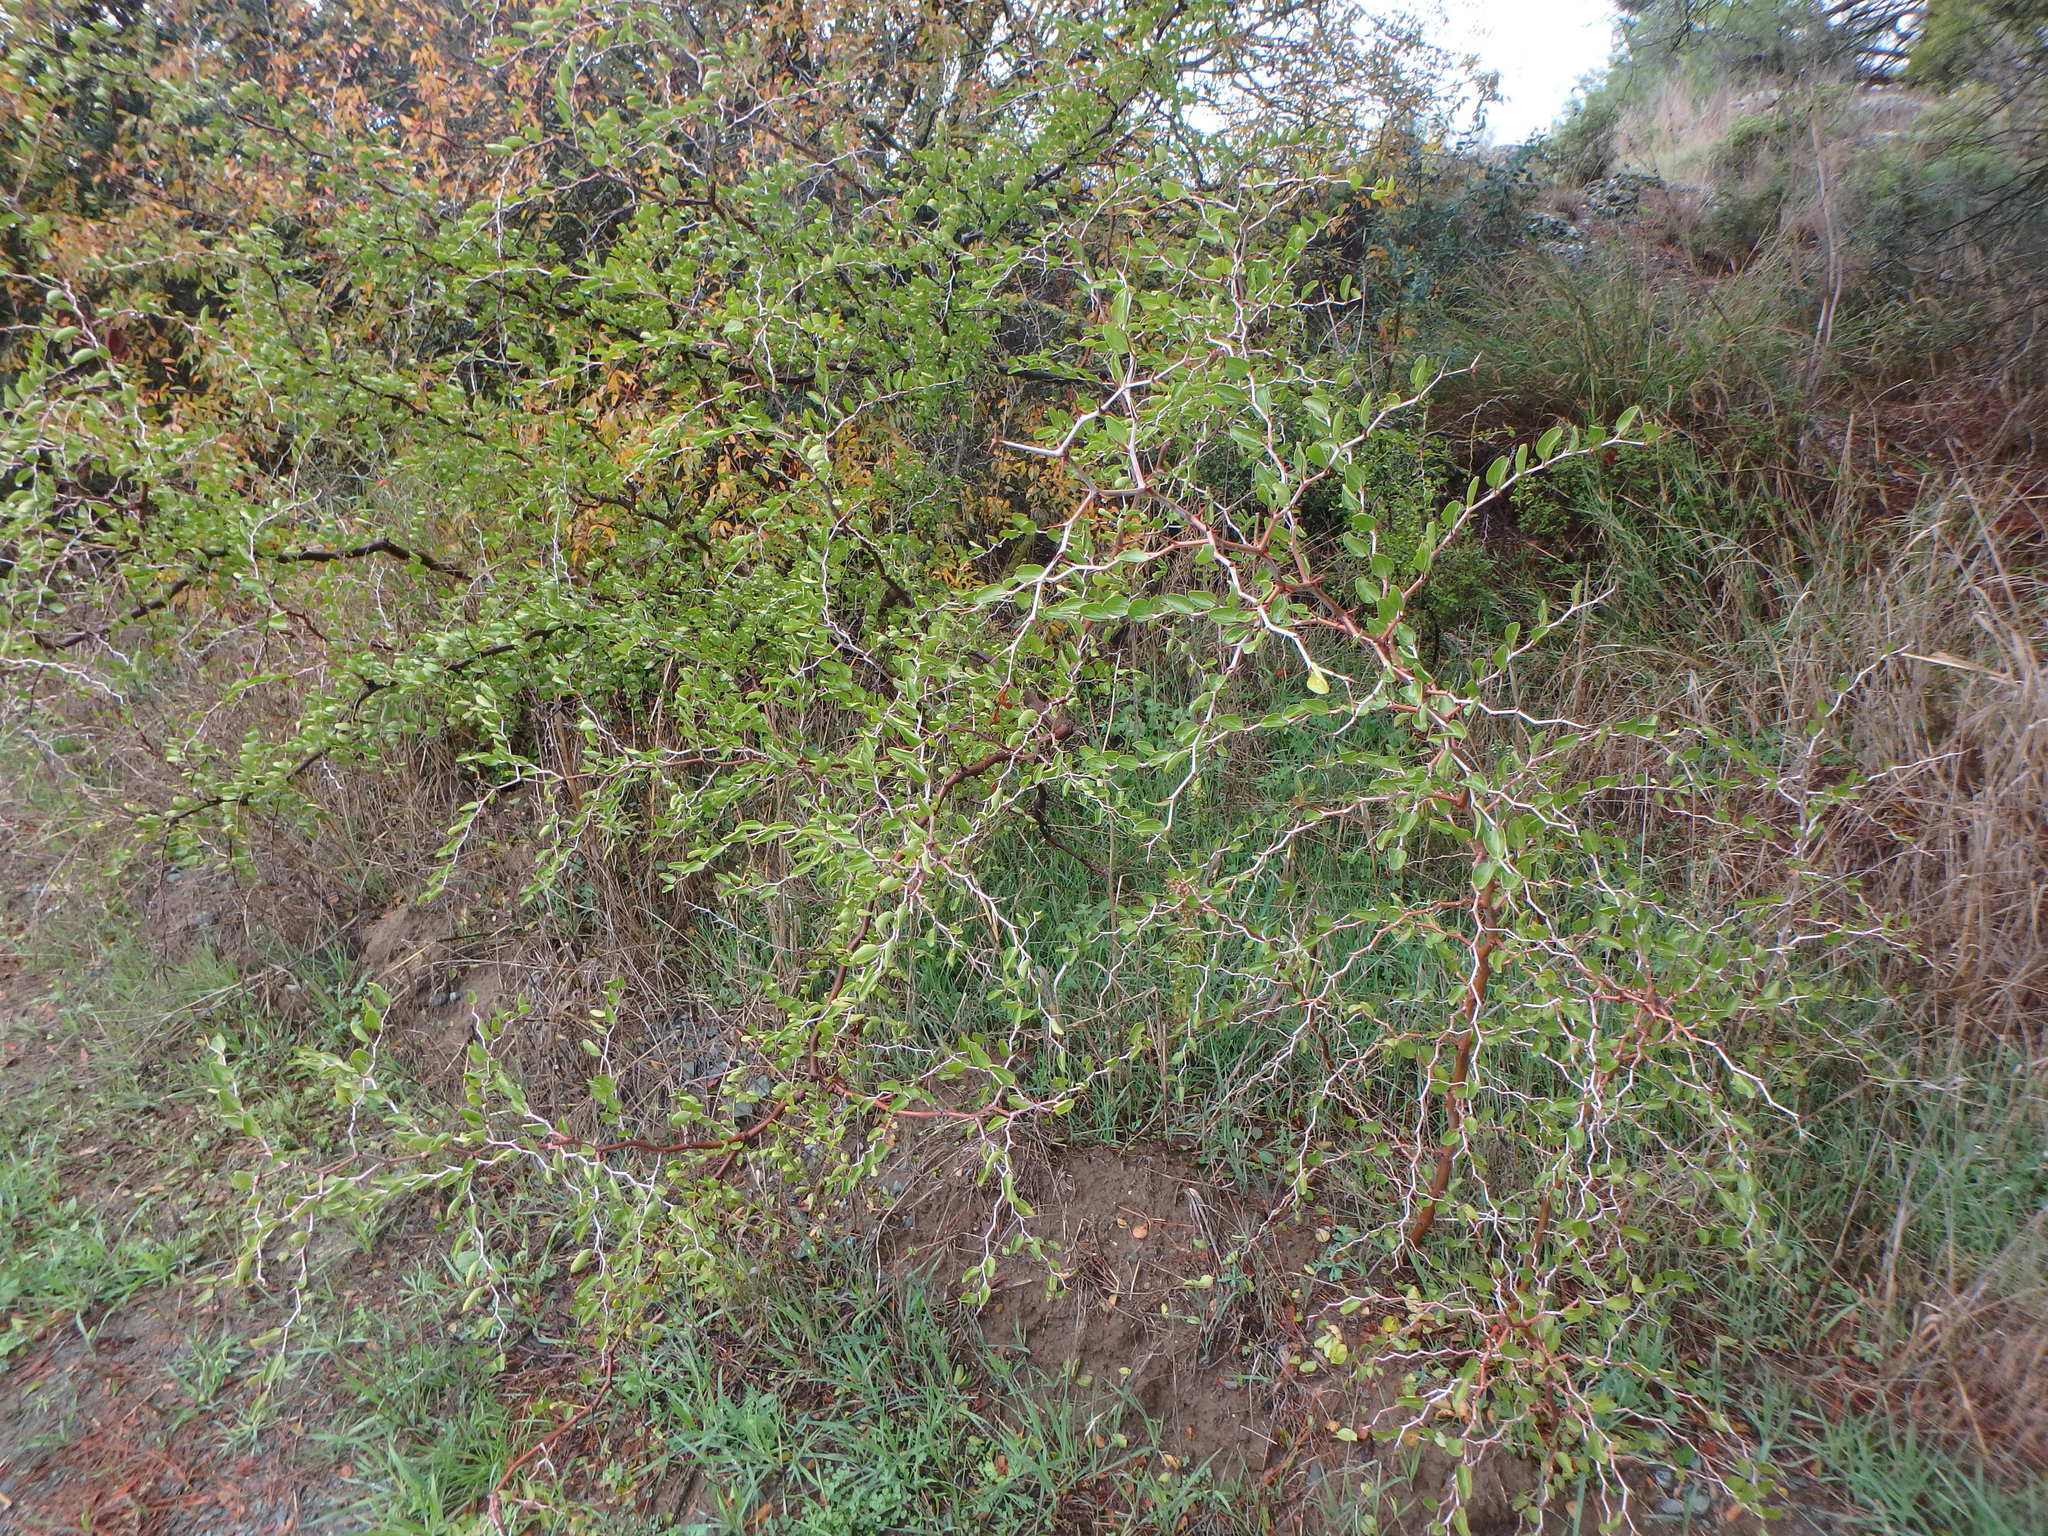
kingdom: Plantae
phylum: Tracheophyta
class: Magnoliopsida
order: Rosales
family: Rhamnaceae
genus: Ziziphus
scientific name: Ziziphus lotus
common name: Lotus
